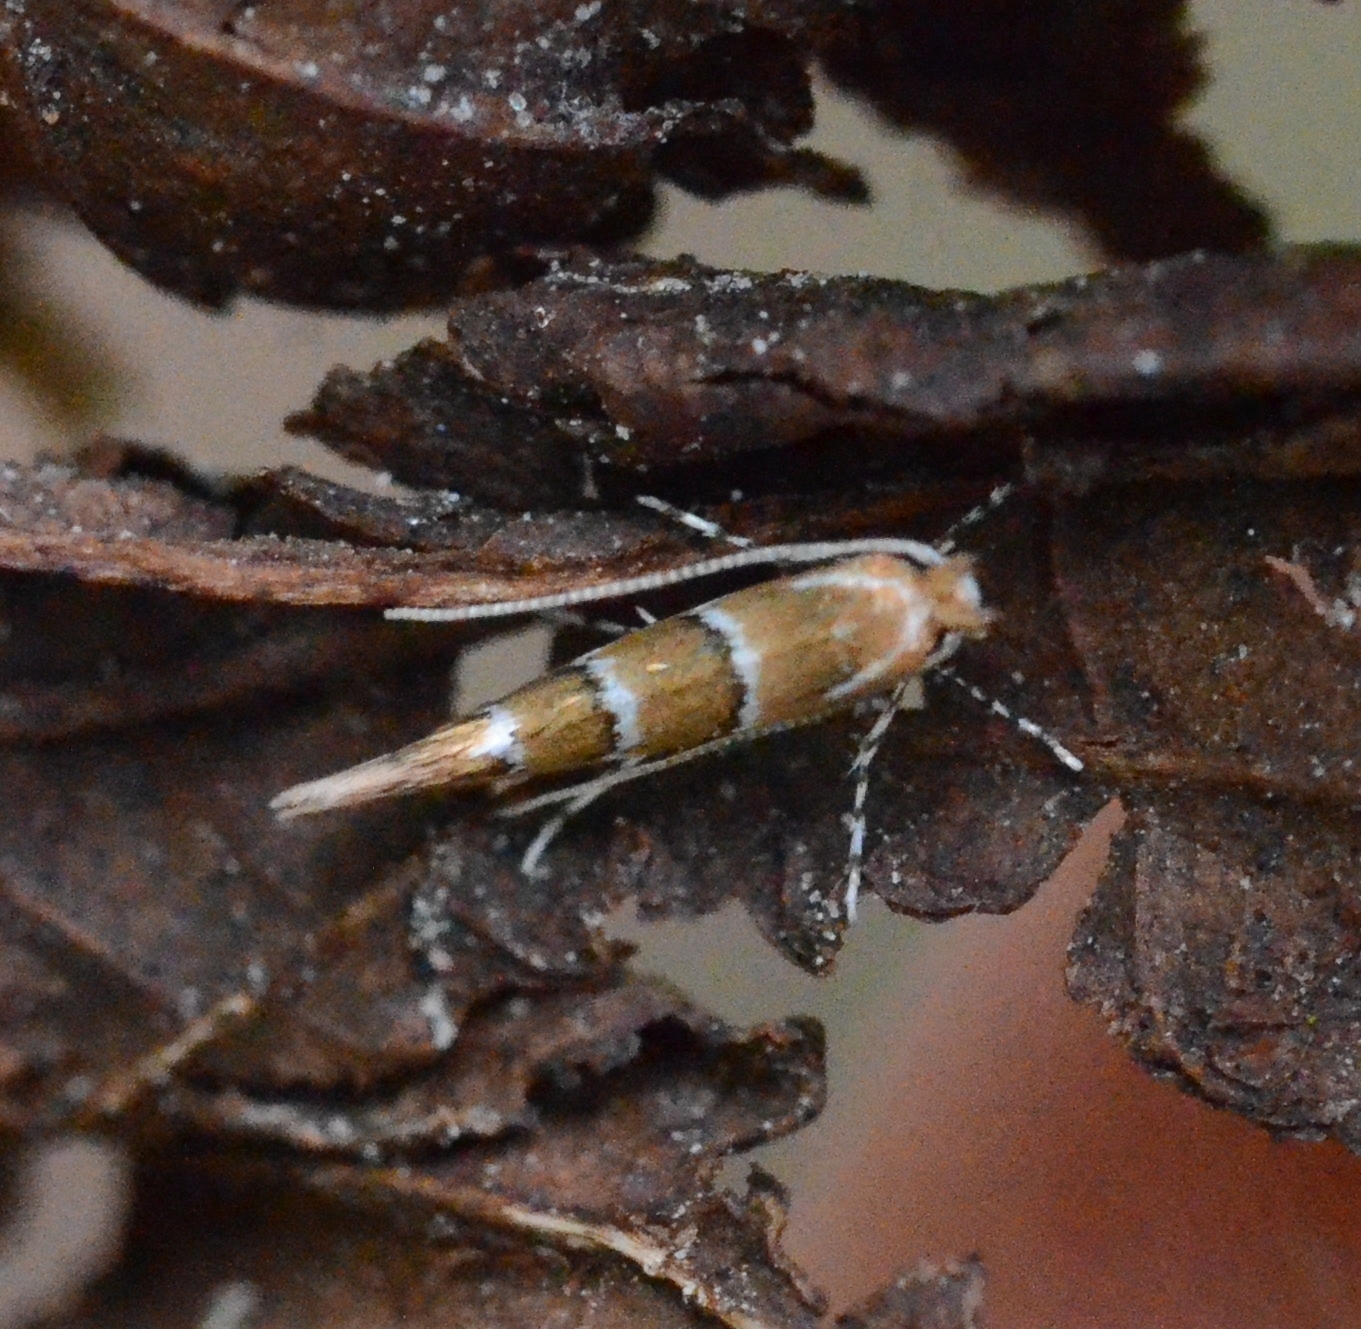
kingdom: Animalia
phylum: Arthropoda
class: Insecta
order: Lepidoptera
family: Gracillariidae
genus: Cameraria
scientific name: Cameraria ohridella
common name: Horse-chestnut leaf-miner
